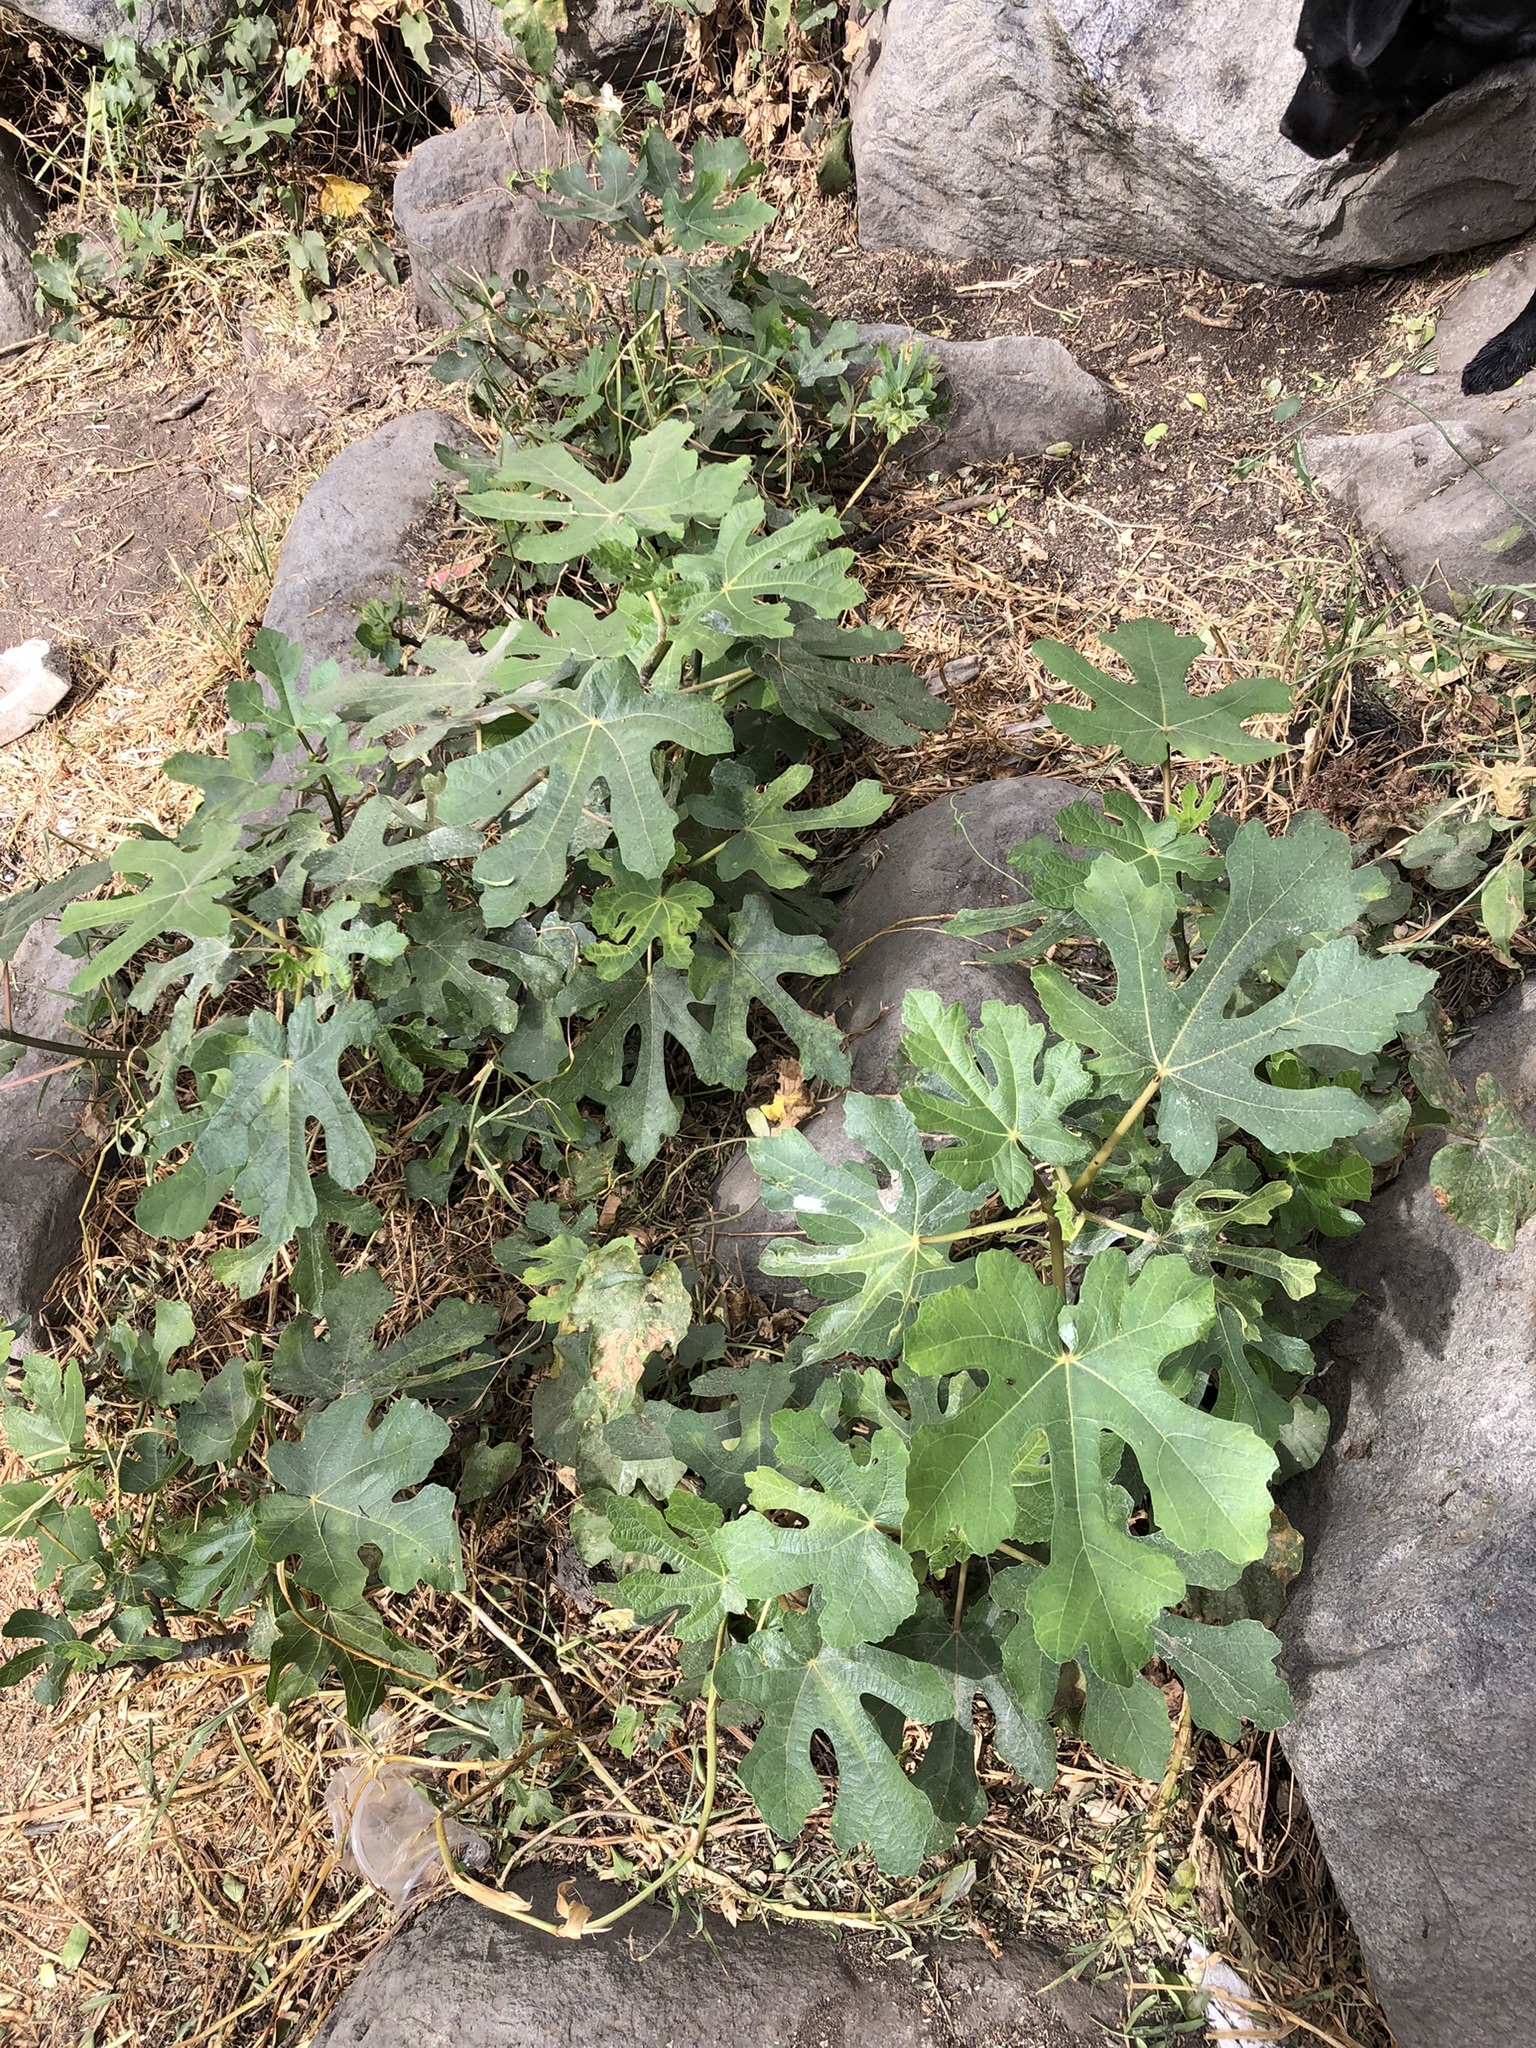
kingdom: Plantae
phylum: Tracheophyta
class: Magnoliopsida
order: Rosales
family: Moraceae
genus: Ficus
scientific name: Ficus carica
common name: Fig
